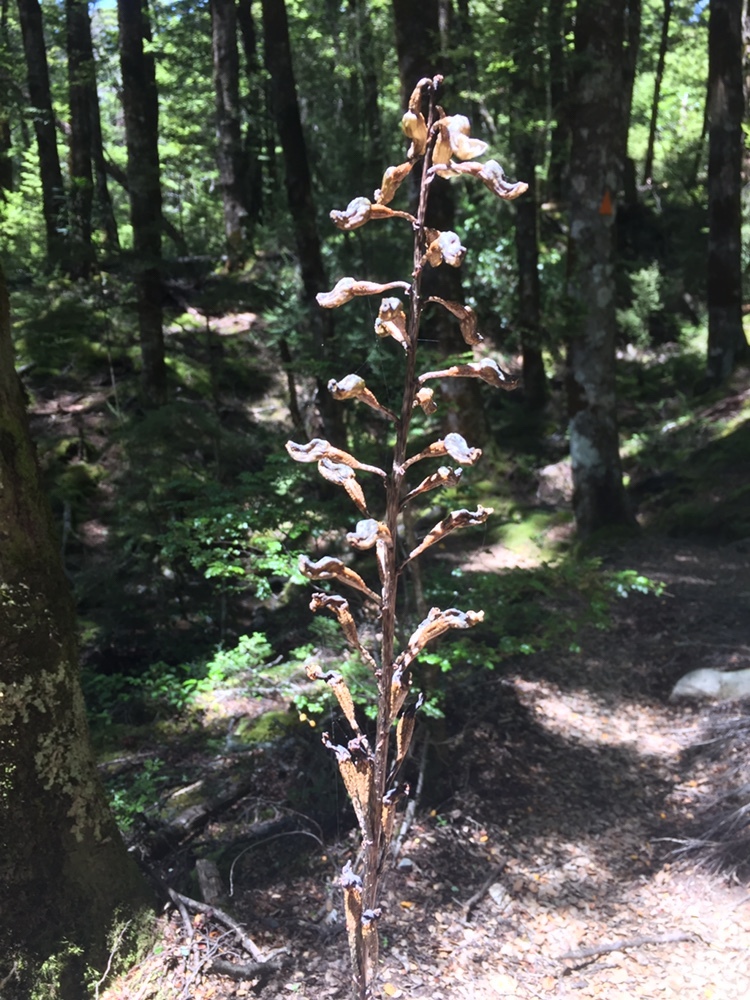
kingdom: Plantae
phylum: Tracheophyta
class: Liliopsida
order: Asparagales
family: Orchidaceae
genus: Gastrodia
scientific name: Gastrodia cunninghamii
